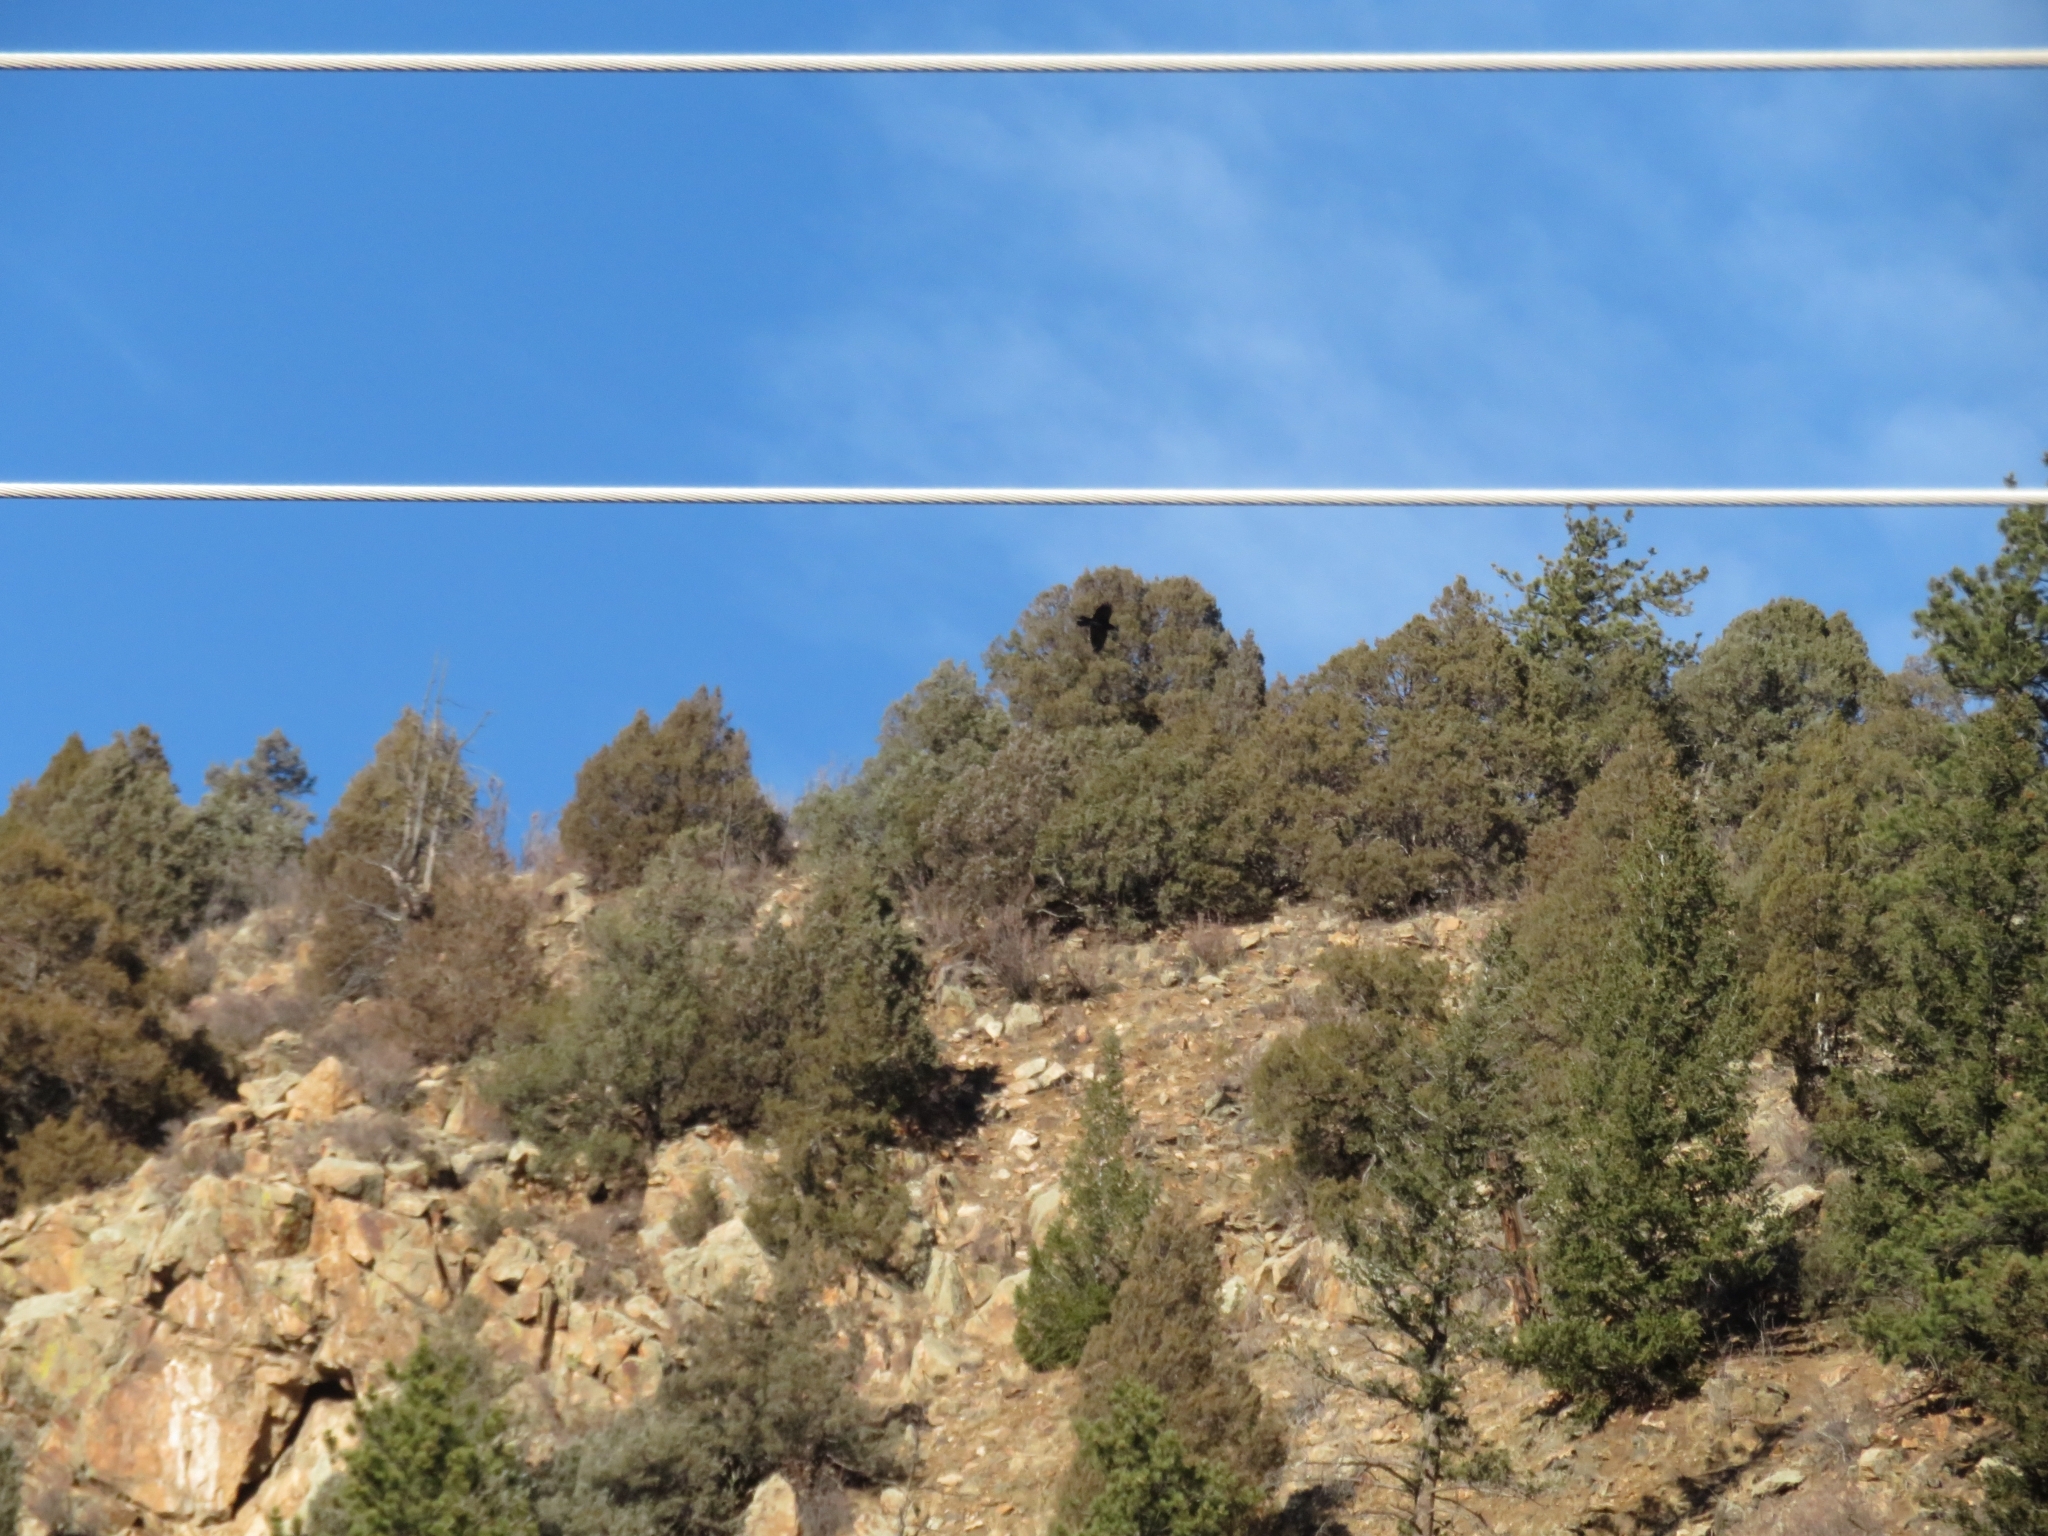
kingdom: Animalia
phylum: Chordata
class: Aves
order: Passeriformes
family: Corvidae
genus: Corvus
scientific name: Corvus brachyrhynchos
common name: American crow
